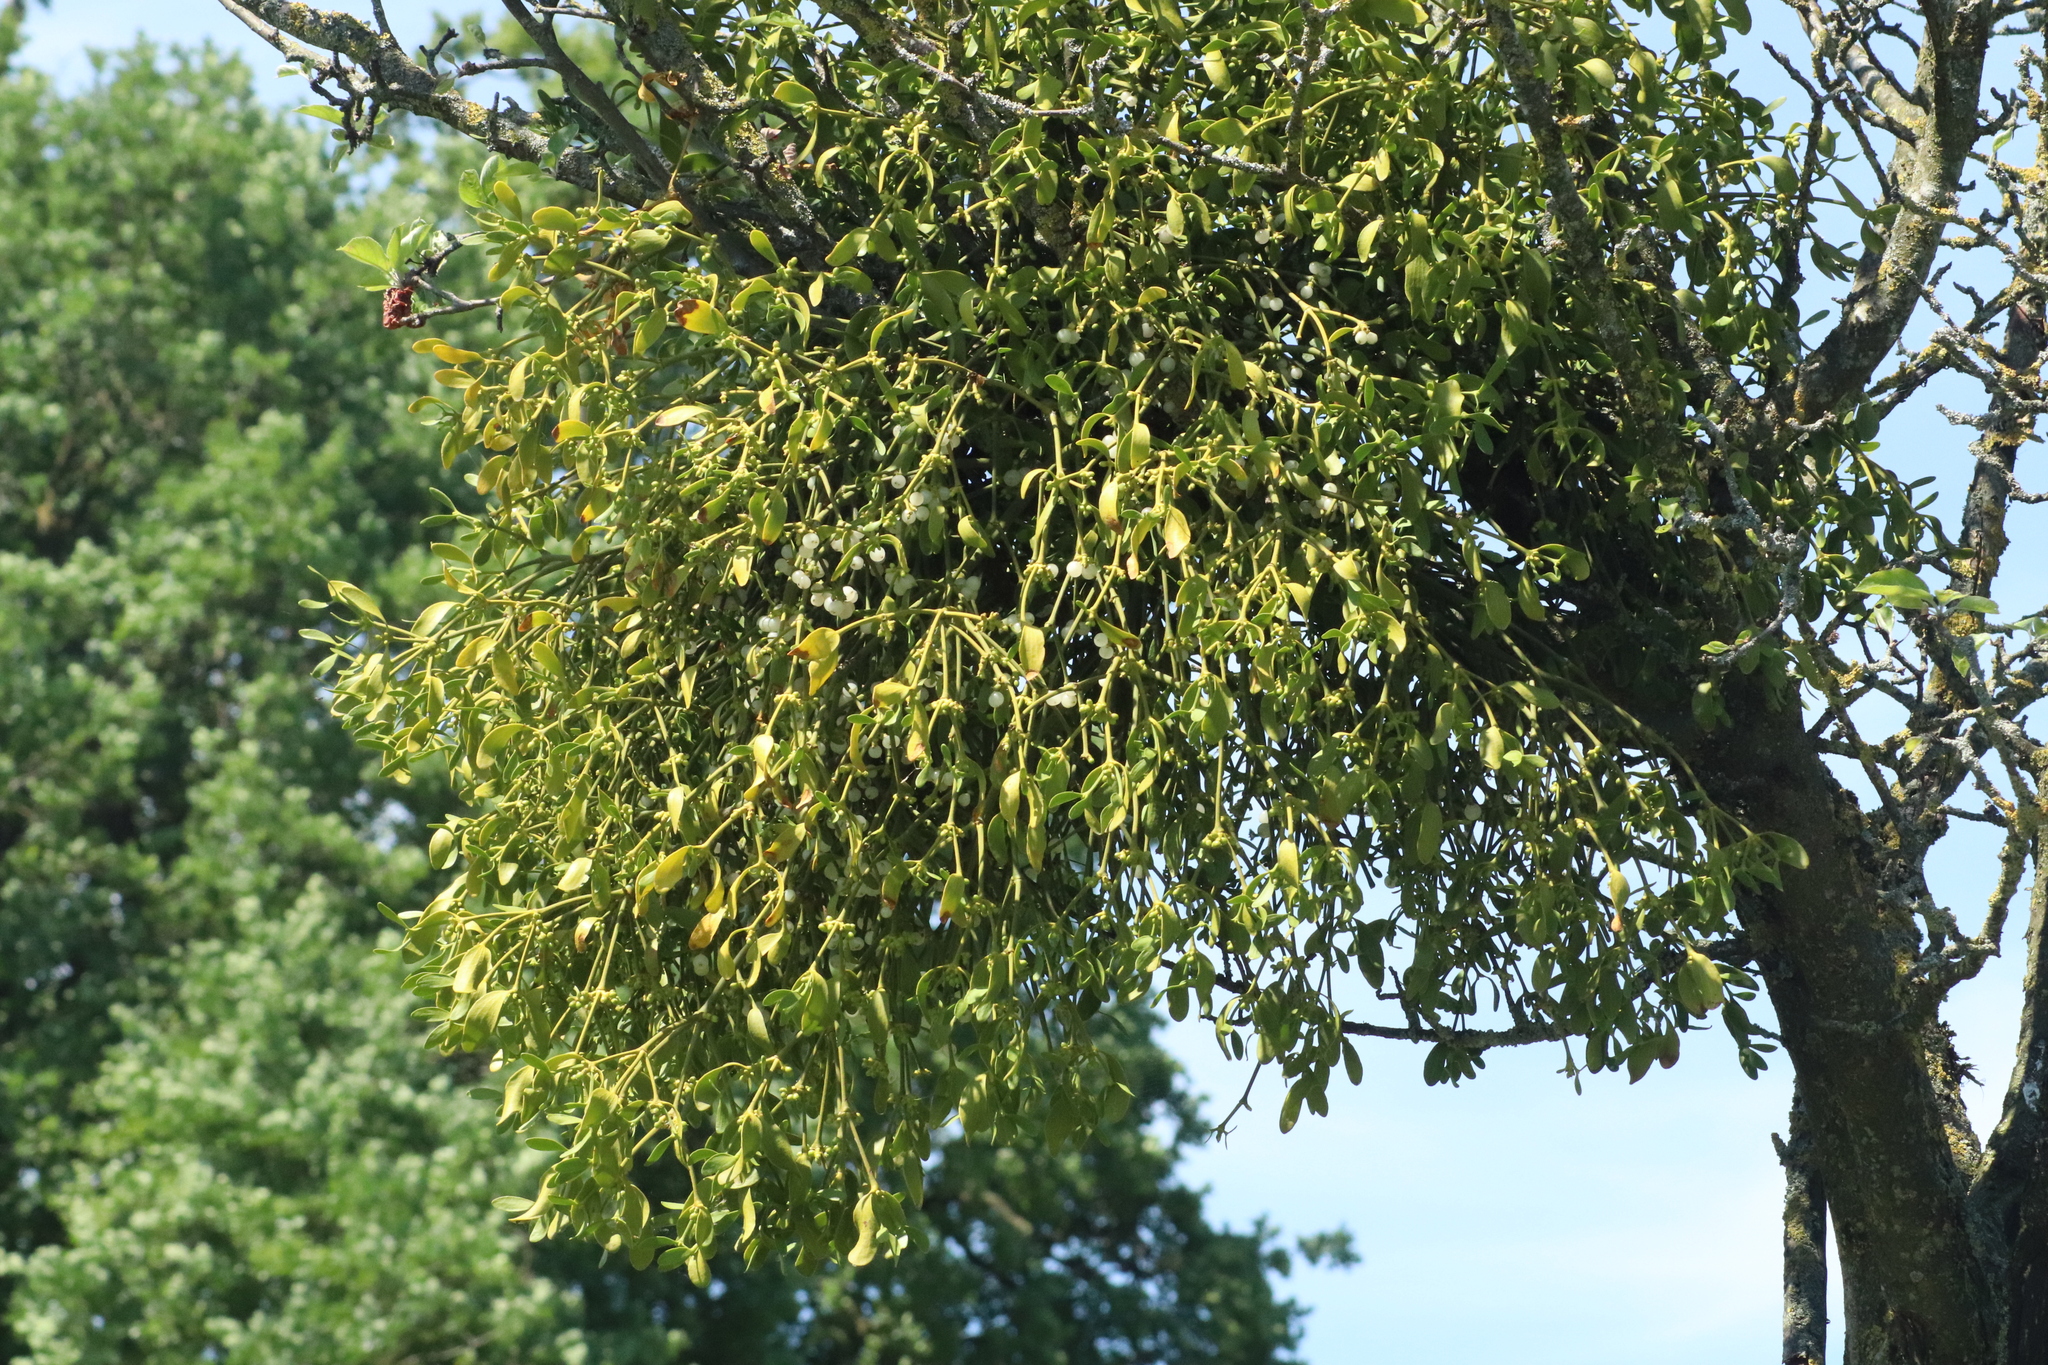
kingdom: Plantae
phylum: Tracheophyta
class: Magnoliopsida
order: Santalales
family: Viscaceae
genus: Viscum
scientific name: Viscum album
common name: Mistletoe
